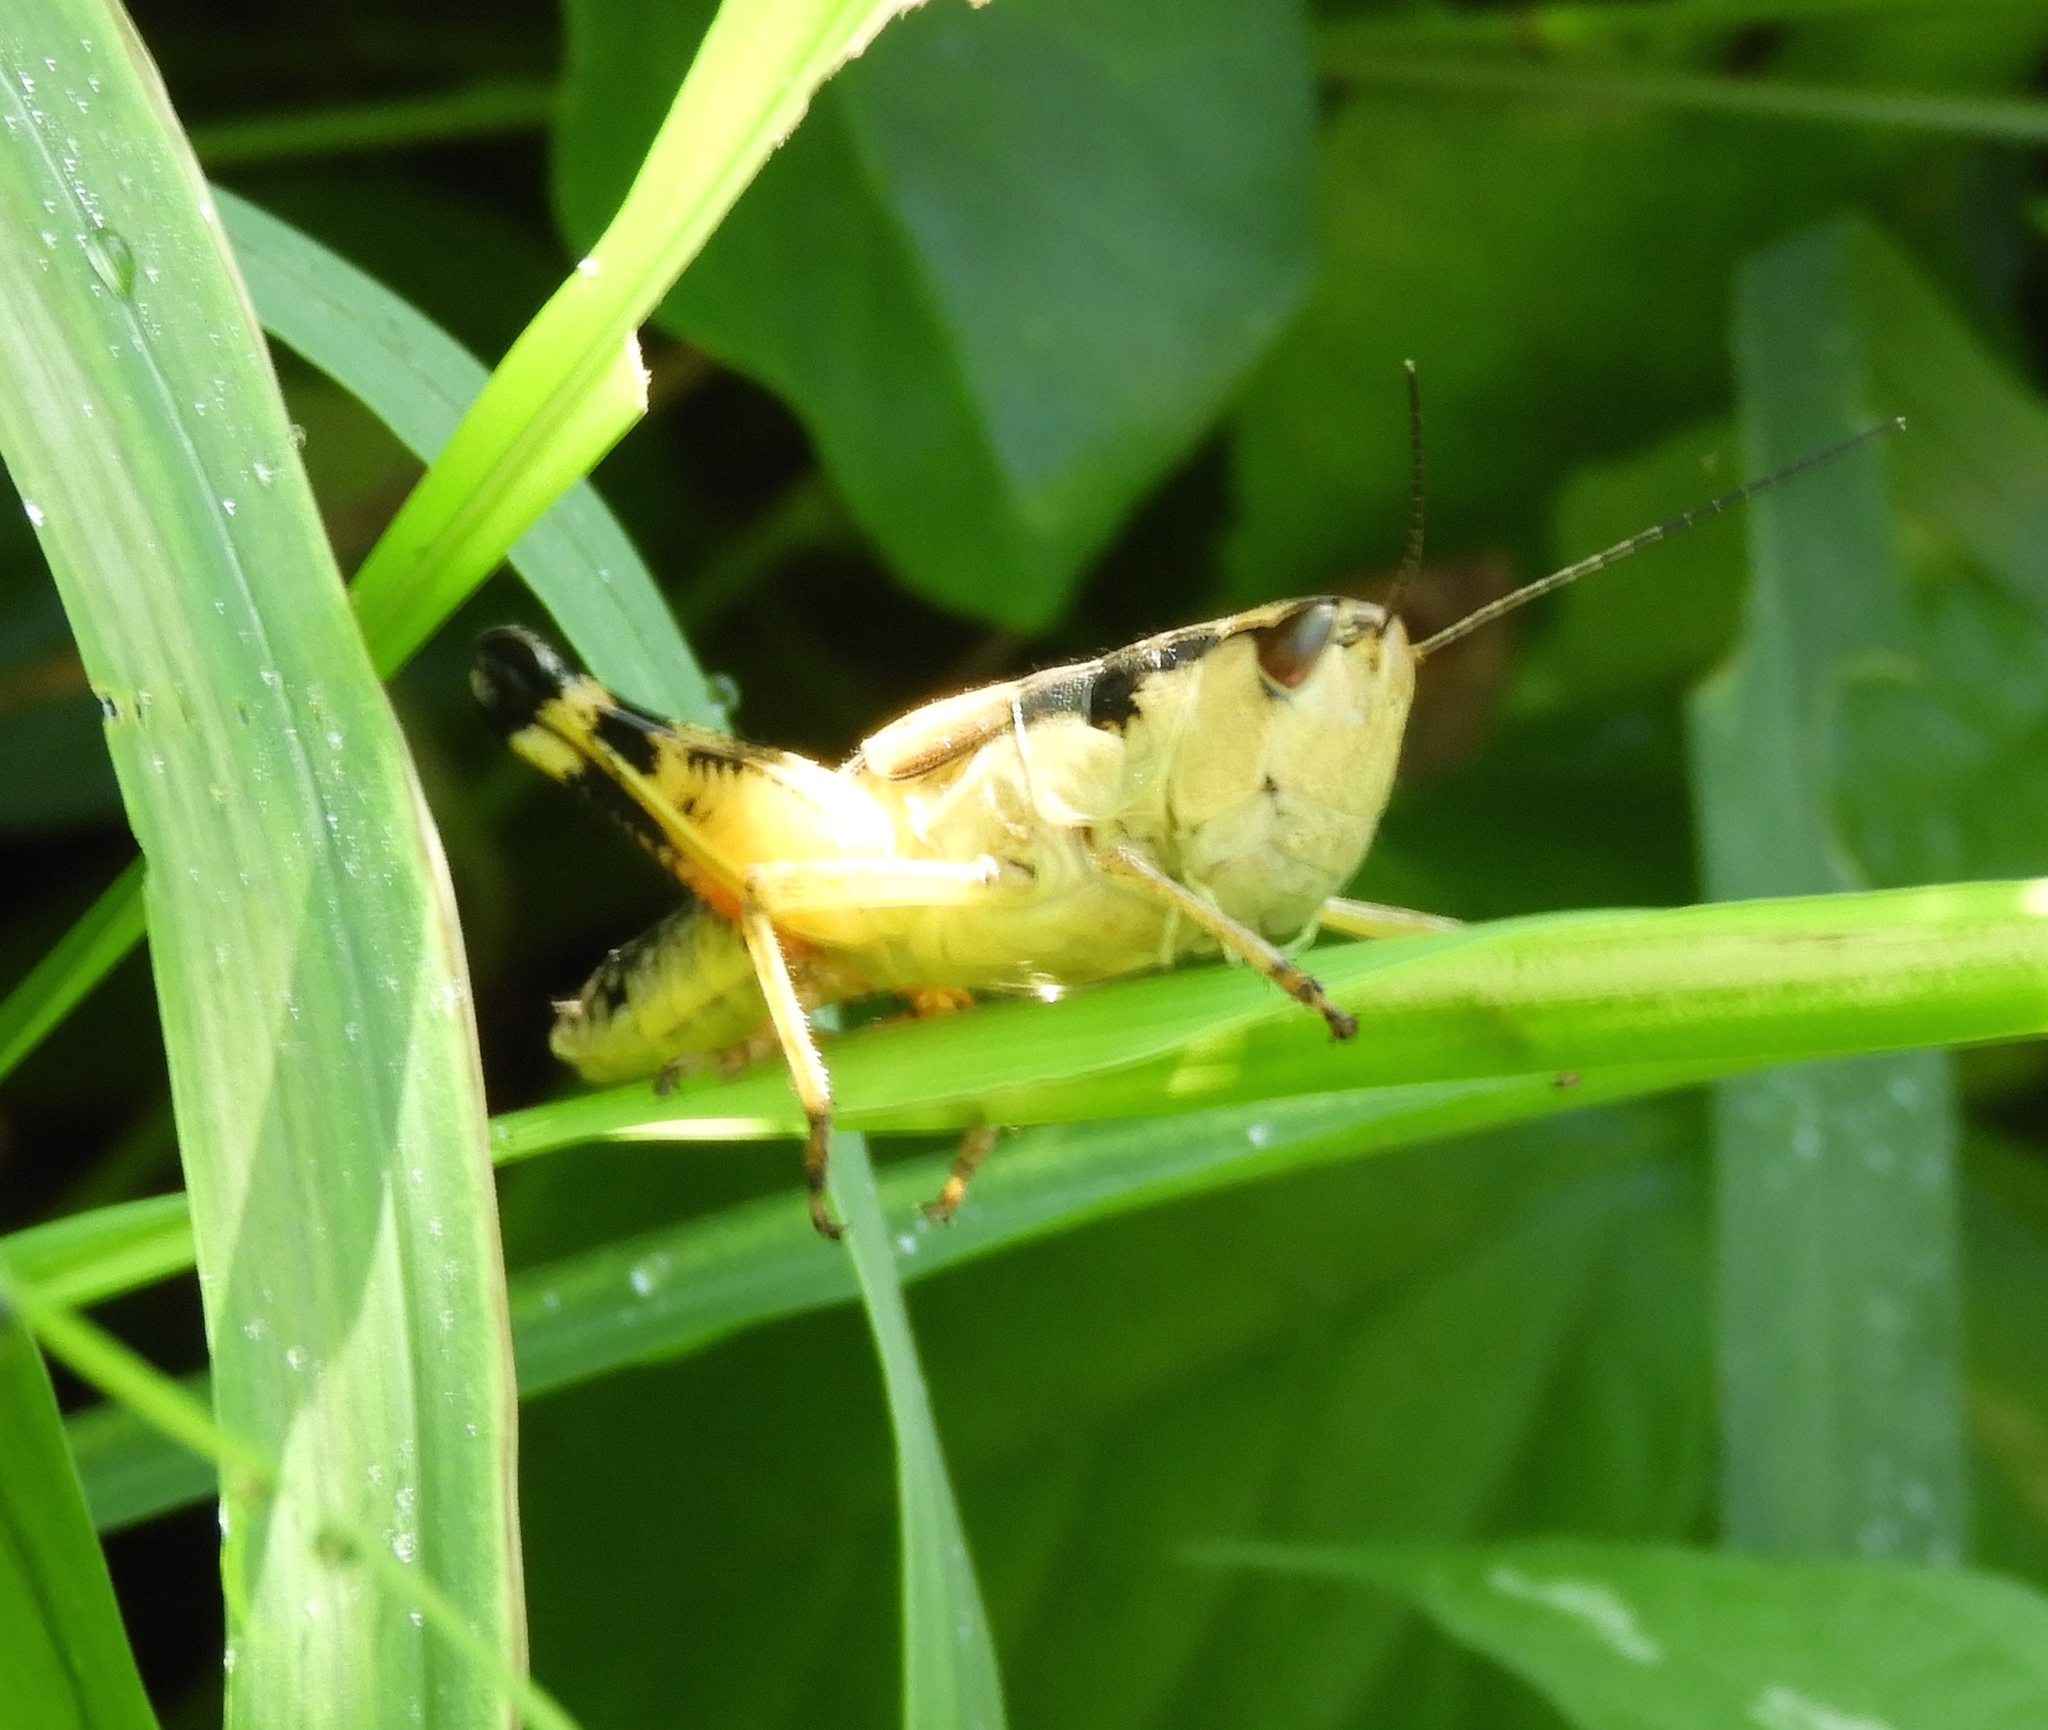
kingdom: Animalia
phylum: Arthropoda
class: Insecta
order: Orthoptera
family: Acrididae
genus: Boopedon
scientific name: Boopedon flaviventris
